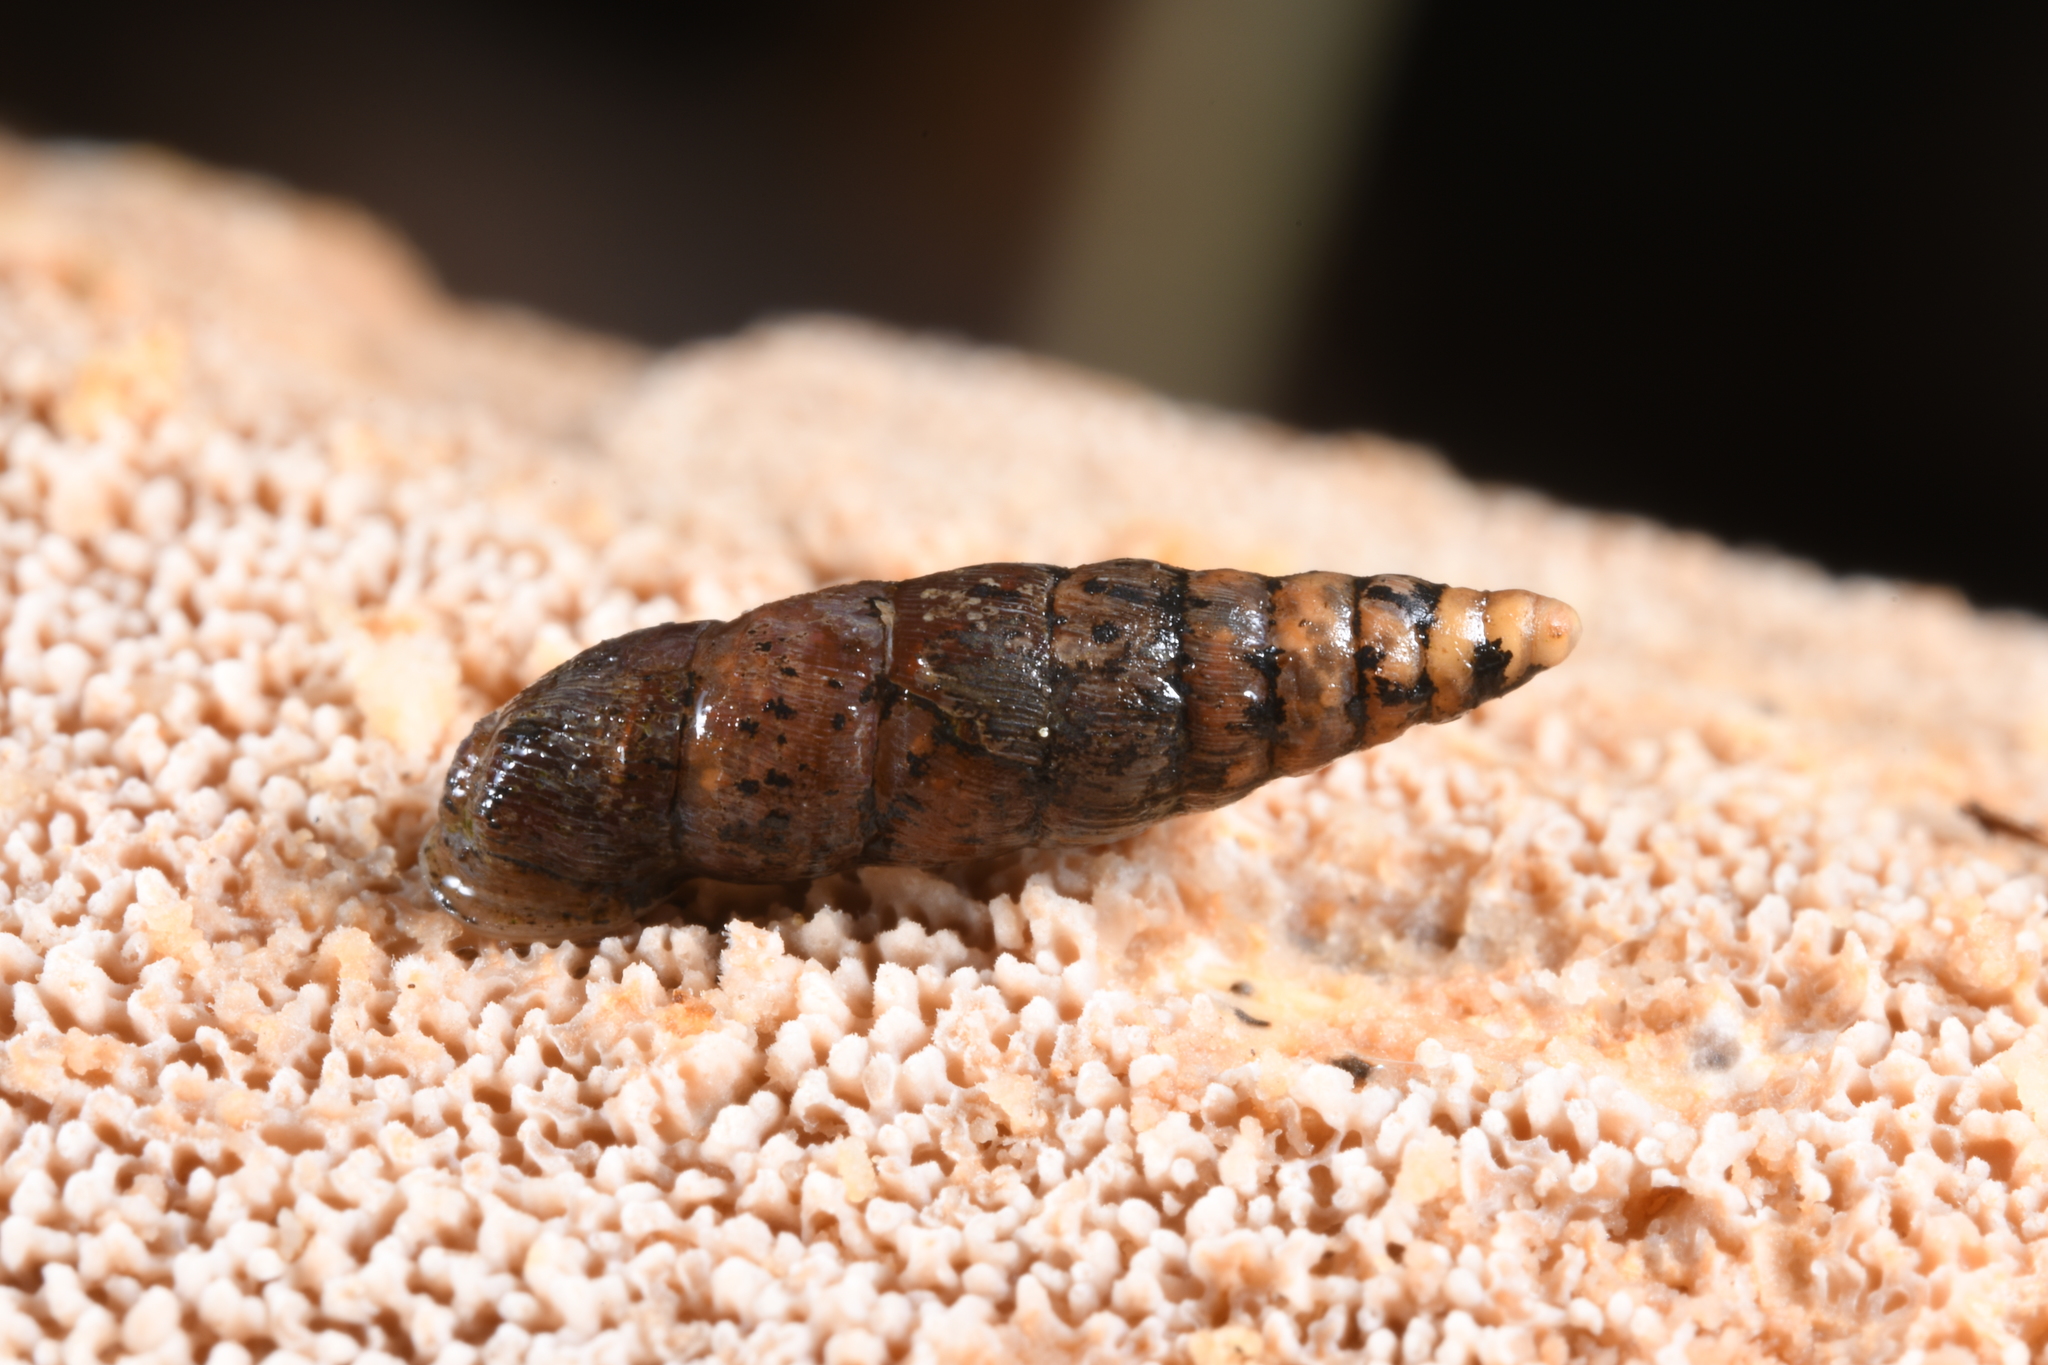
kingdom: Animalia
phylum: Mollusca
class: Gastropoda
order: Stylommatophora
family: Clausiliidae
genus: Clausilia
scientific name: Clausilia bidentata
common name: Two-toothed door snail
